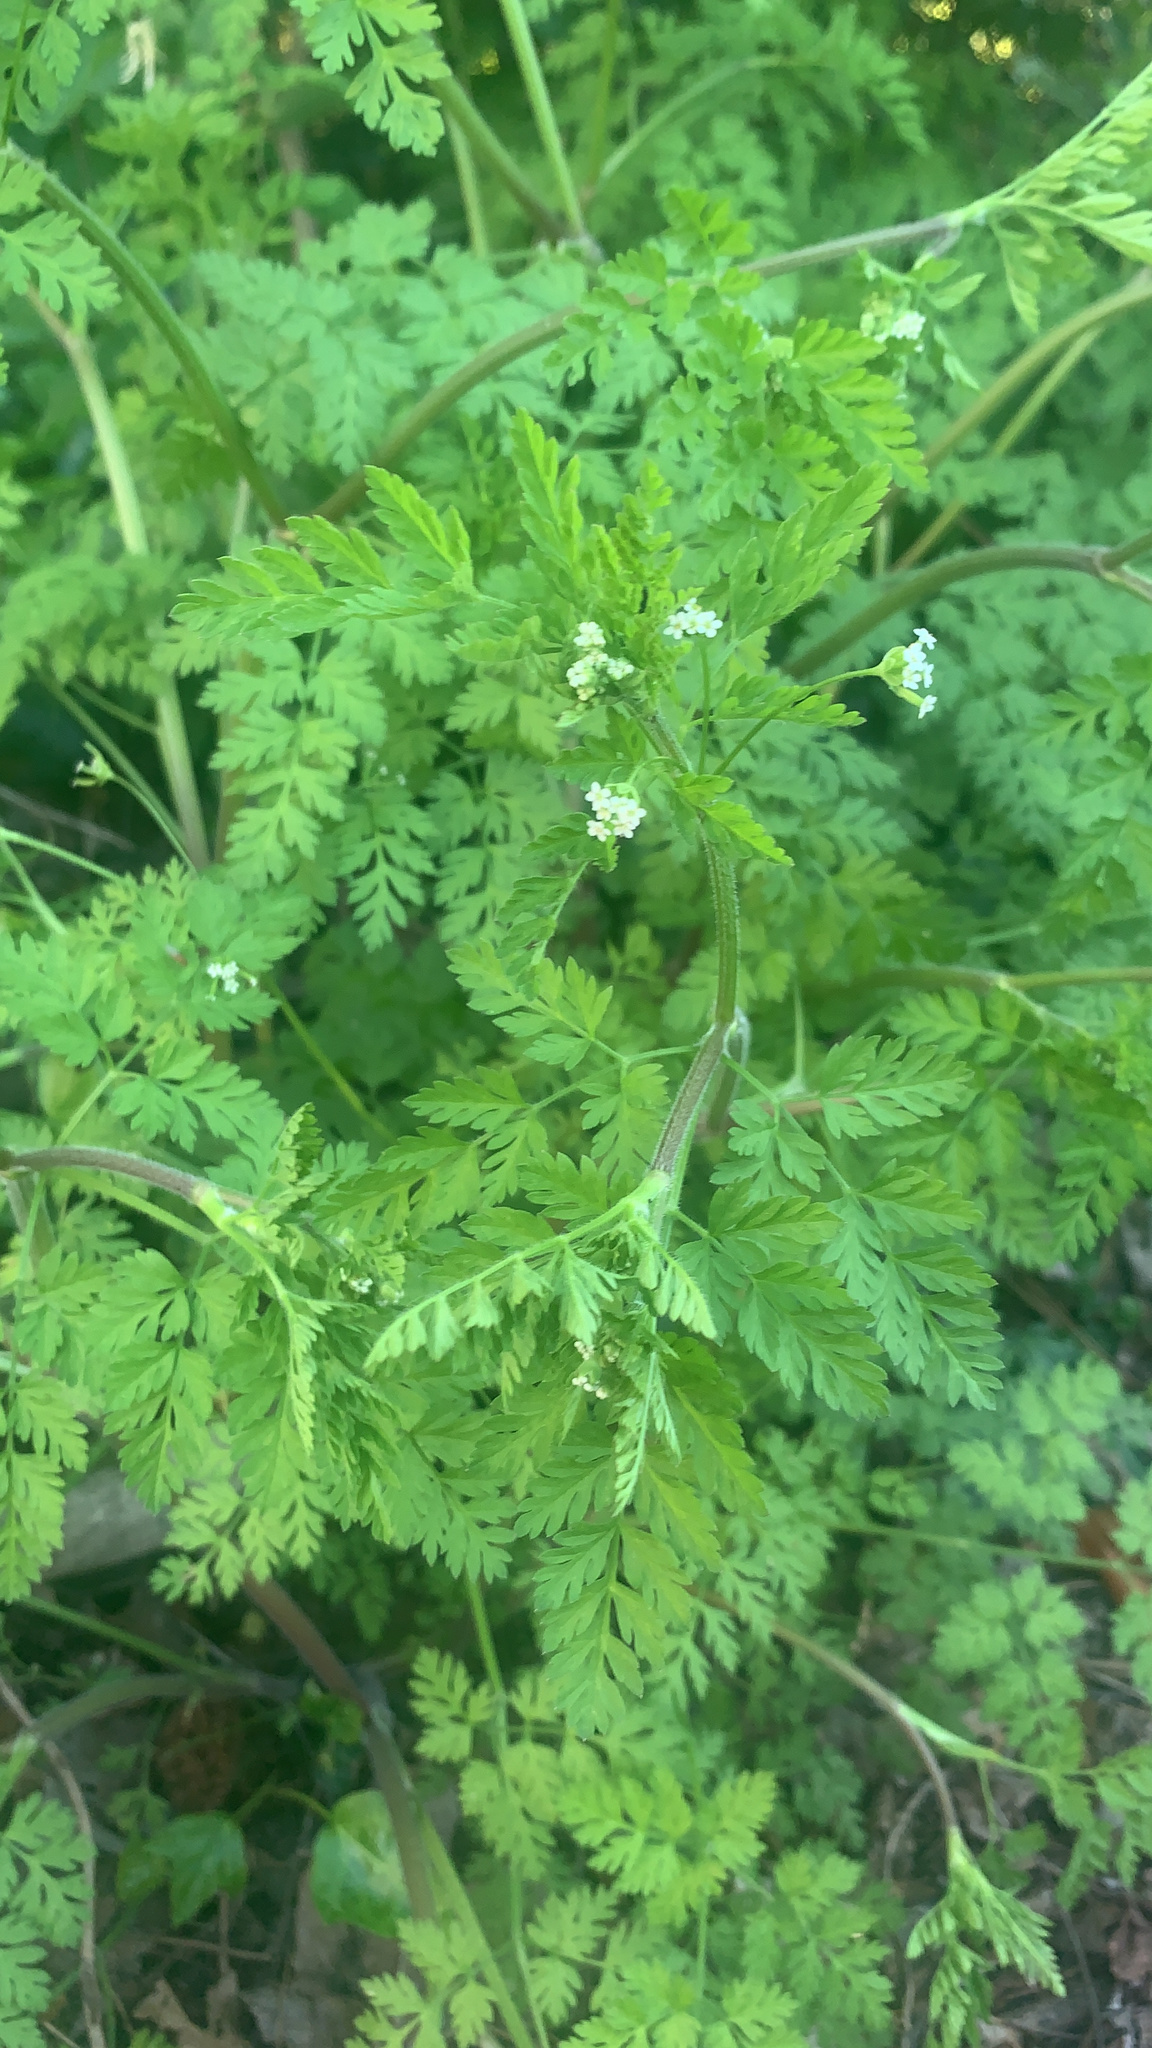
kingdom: Plantae
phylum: Tracheophyta
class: Magnoliopsida
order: Apiales
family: Apiaceae
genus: Chaerophyllum
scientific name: Chaerophyllum tainturieri
